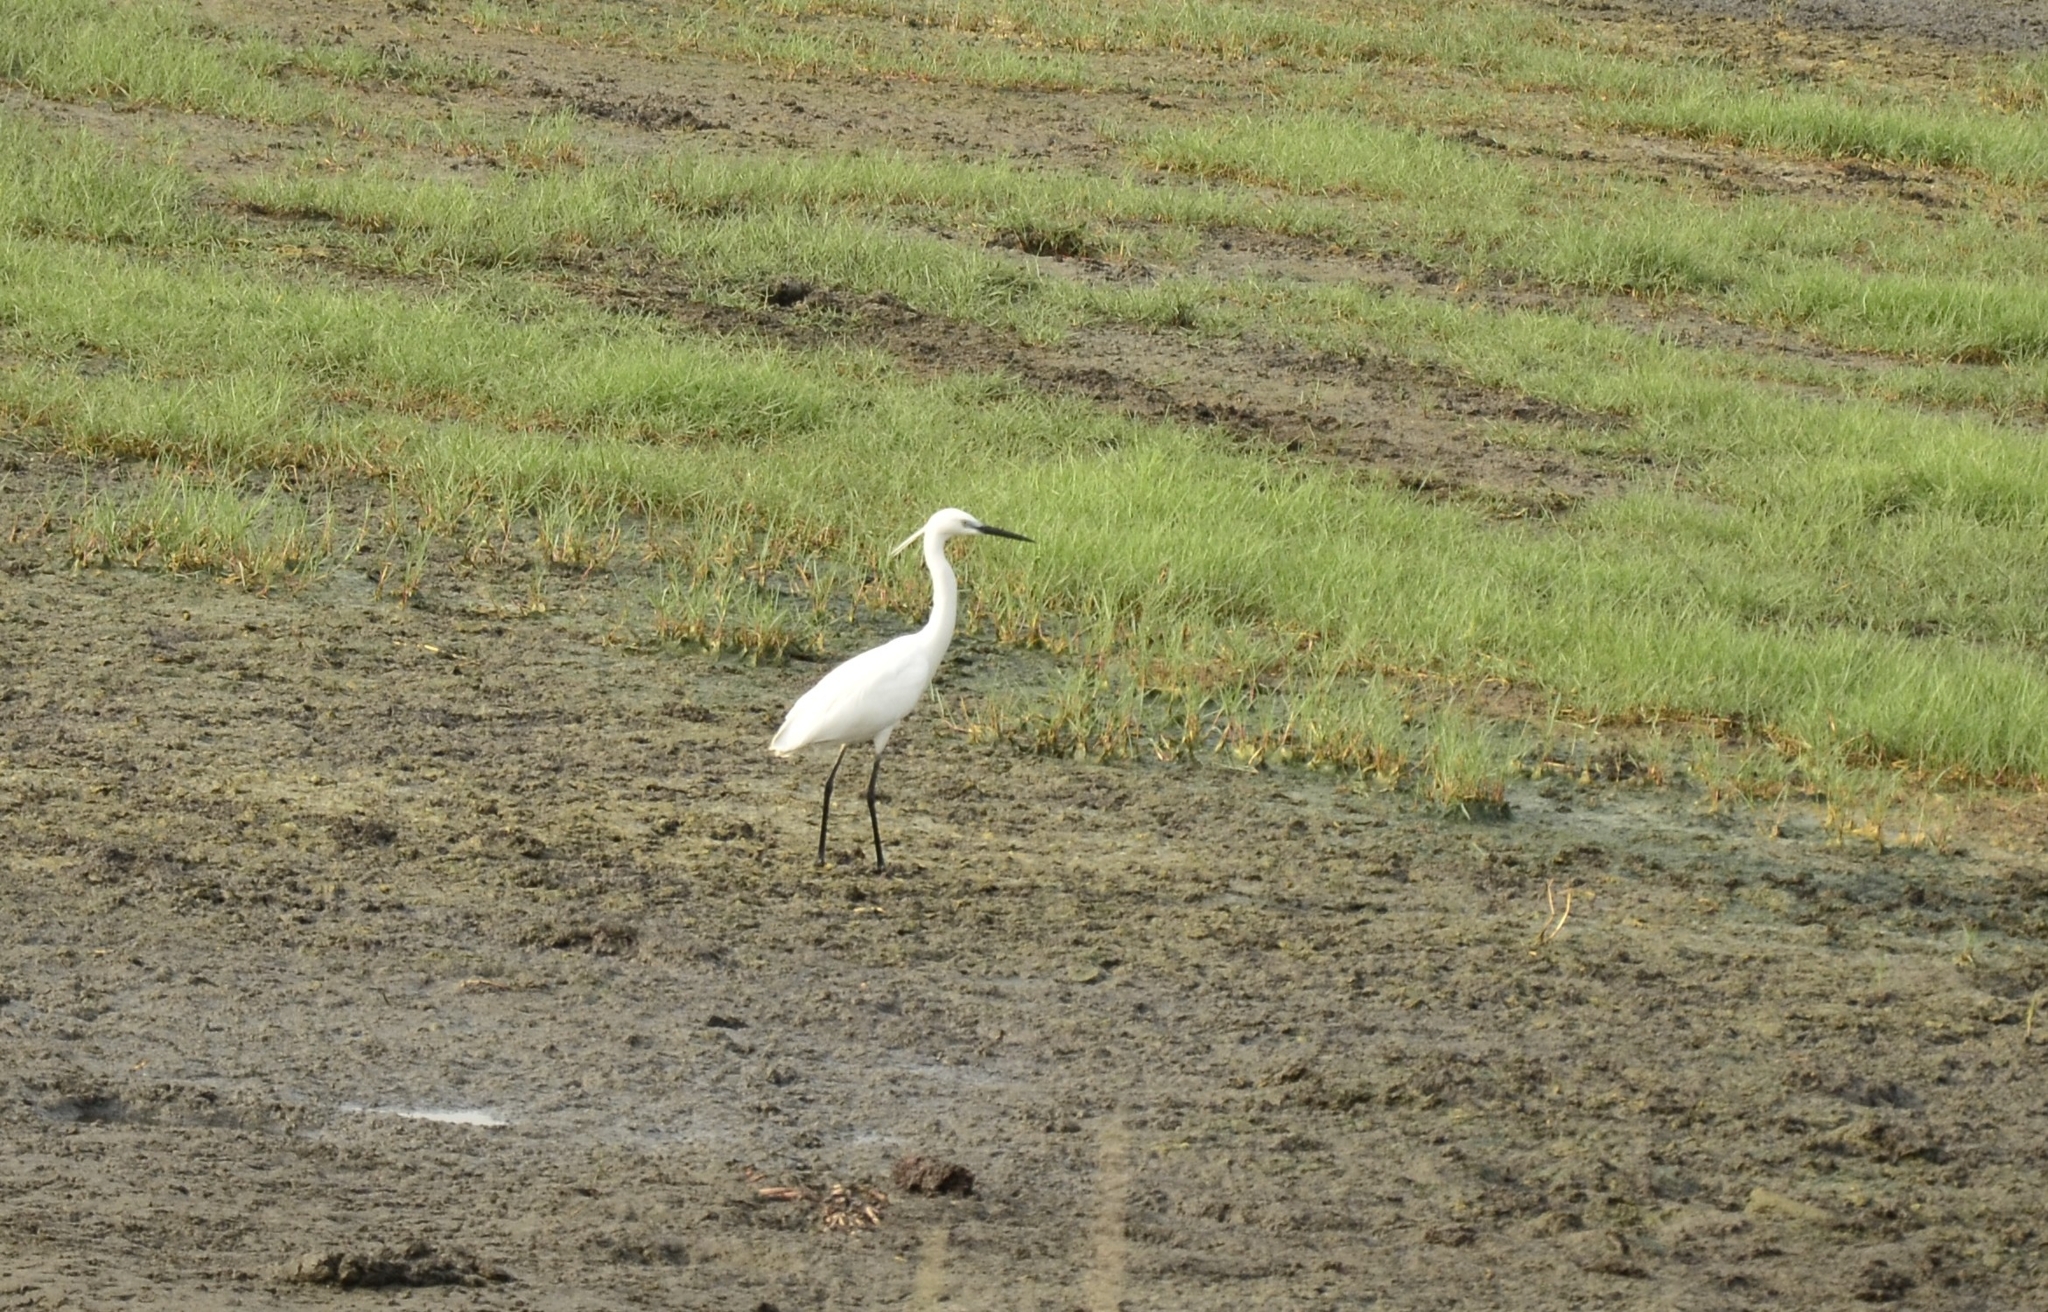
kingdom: Animalia
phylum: Chordata
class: Aves
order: Pelecaniformes
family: Ardeidae
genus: Egretta
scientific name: Egretta garzetta
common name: Little egret
